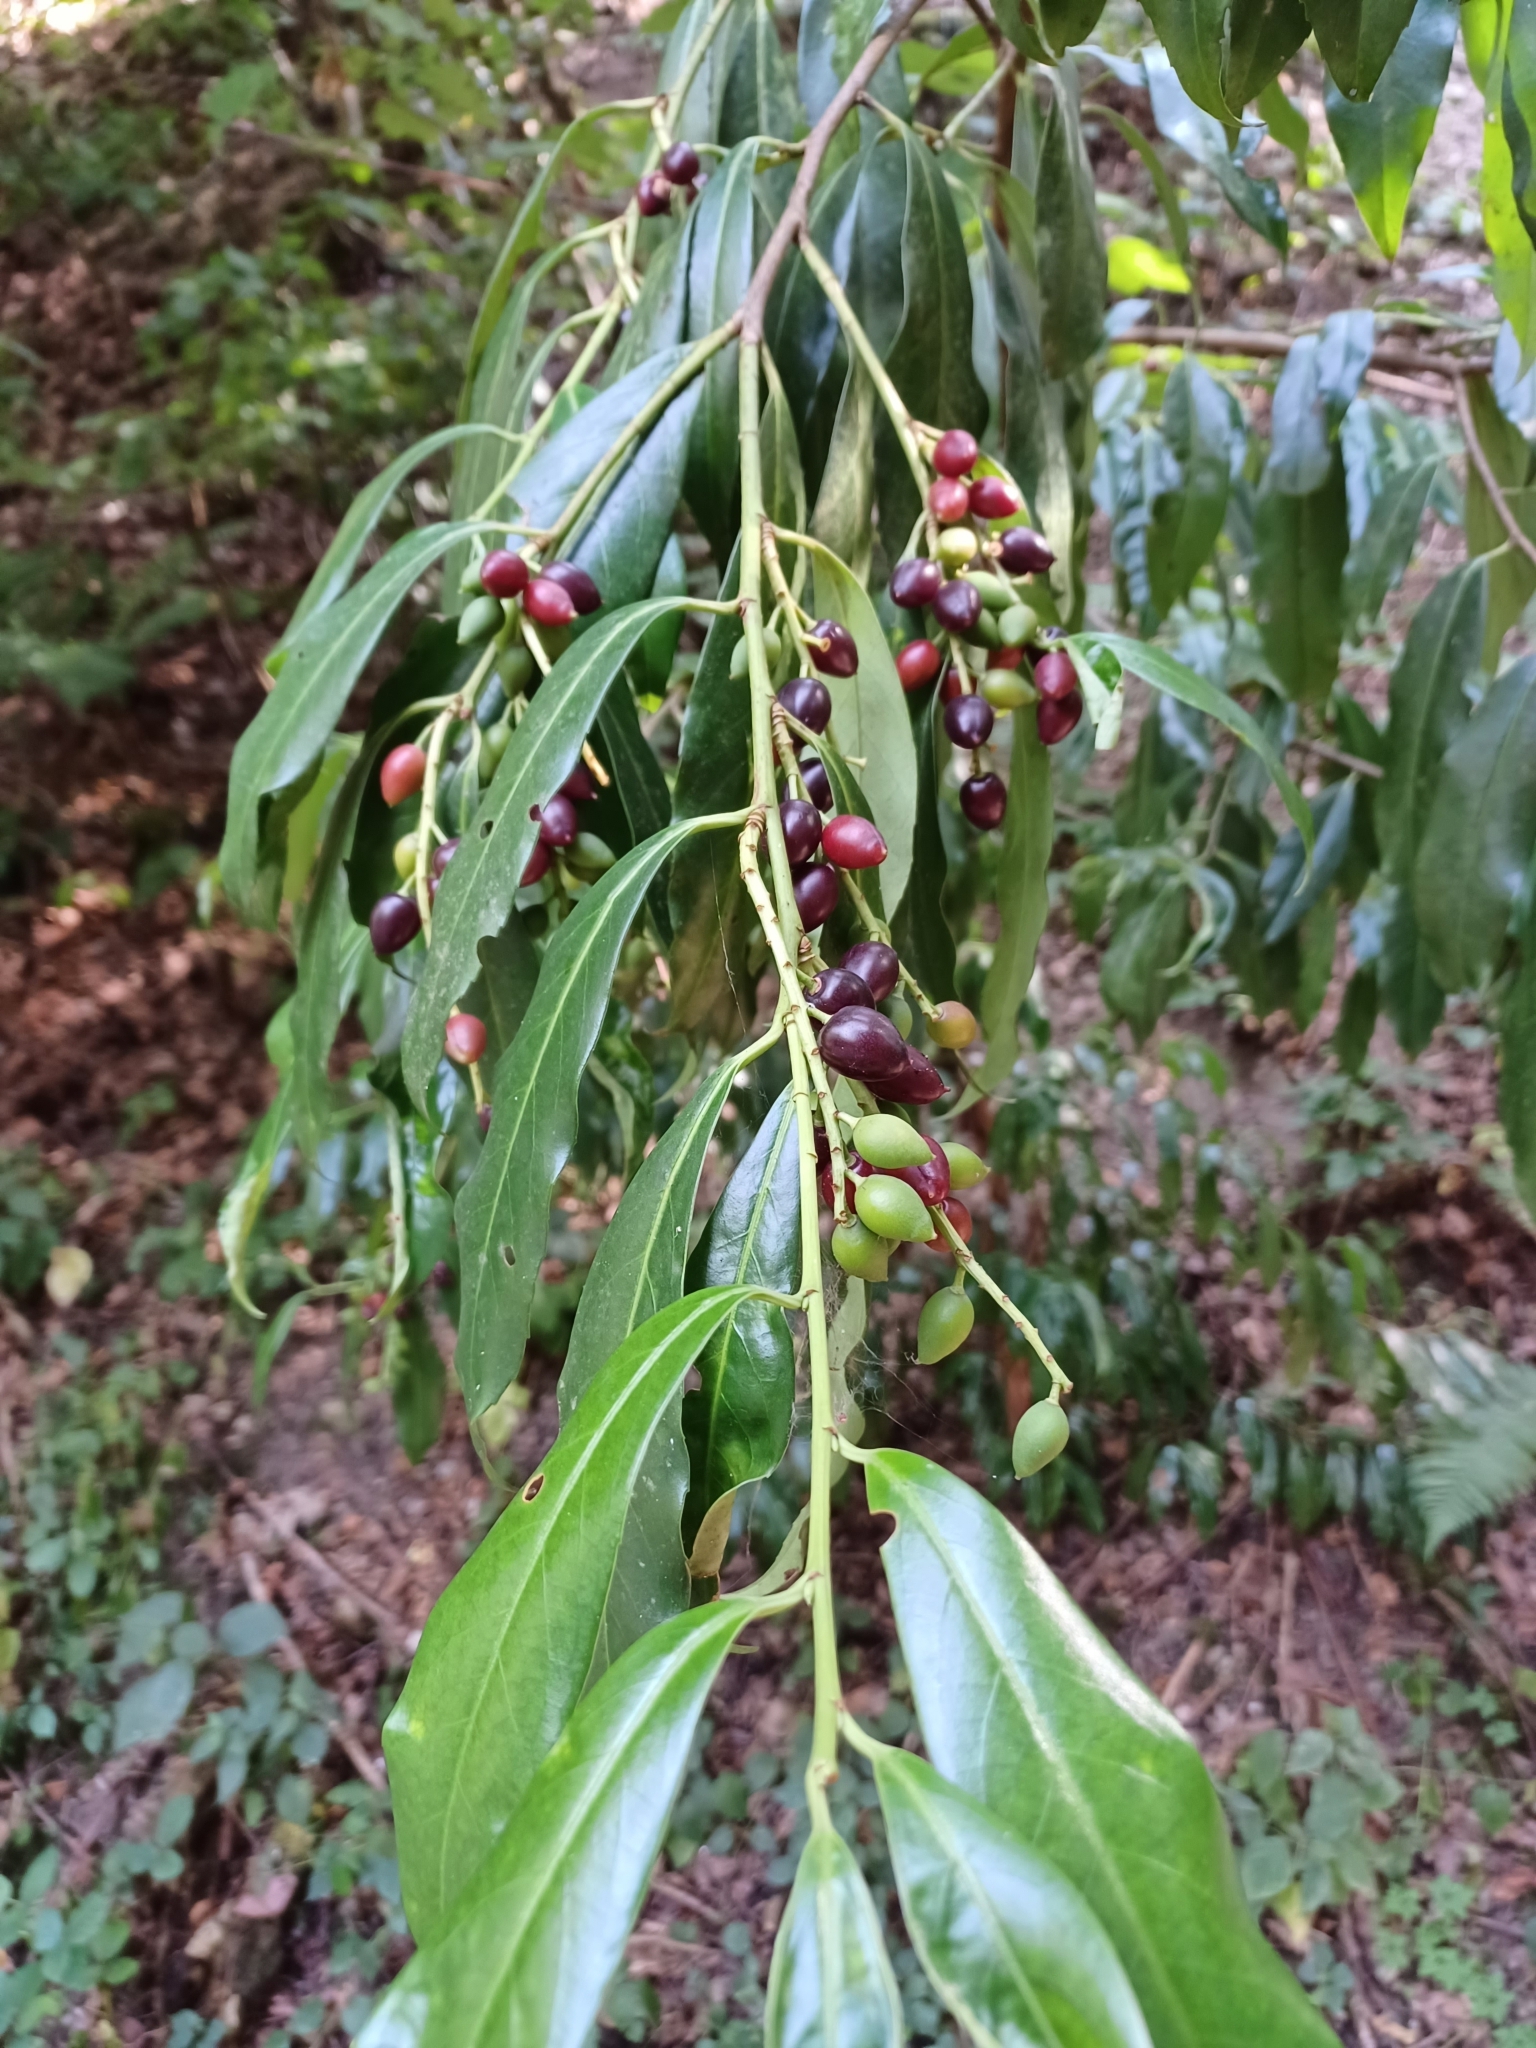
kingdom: Plantae
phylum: Tracheophyta
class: Magnoliopsida
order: Rosales
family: Rosaceae
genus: Prunus
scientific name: Prunus laurocerasus
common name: Cherry laurel
